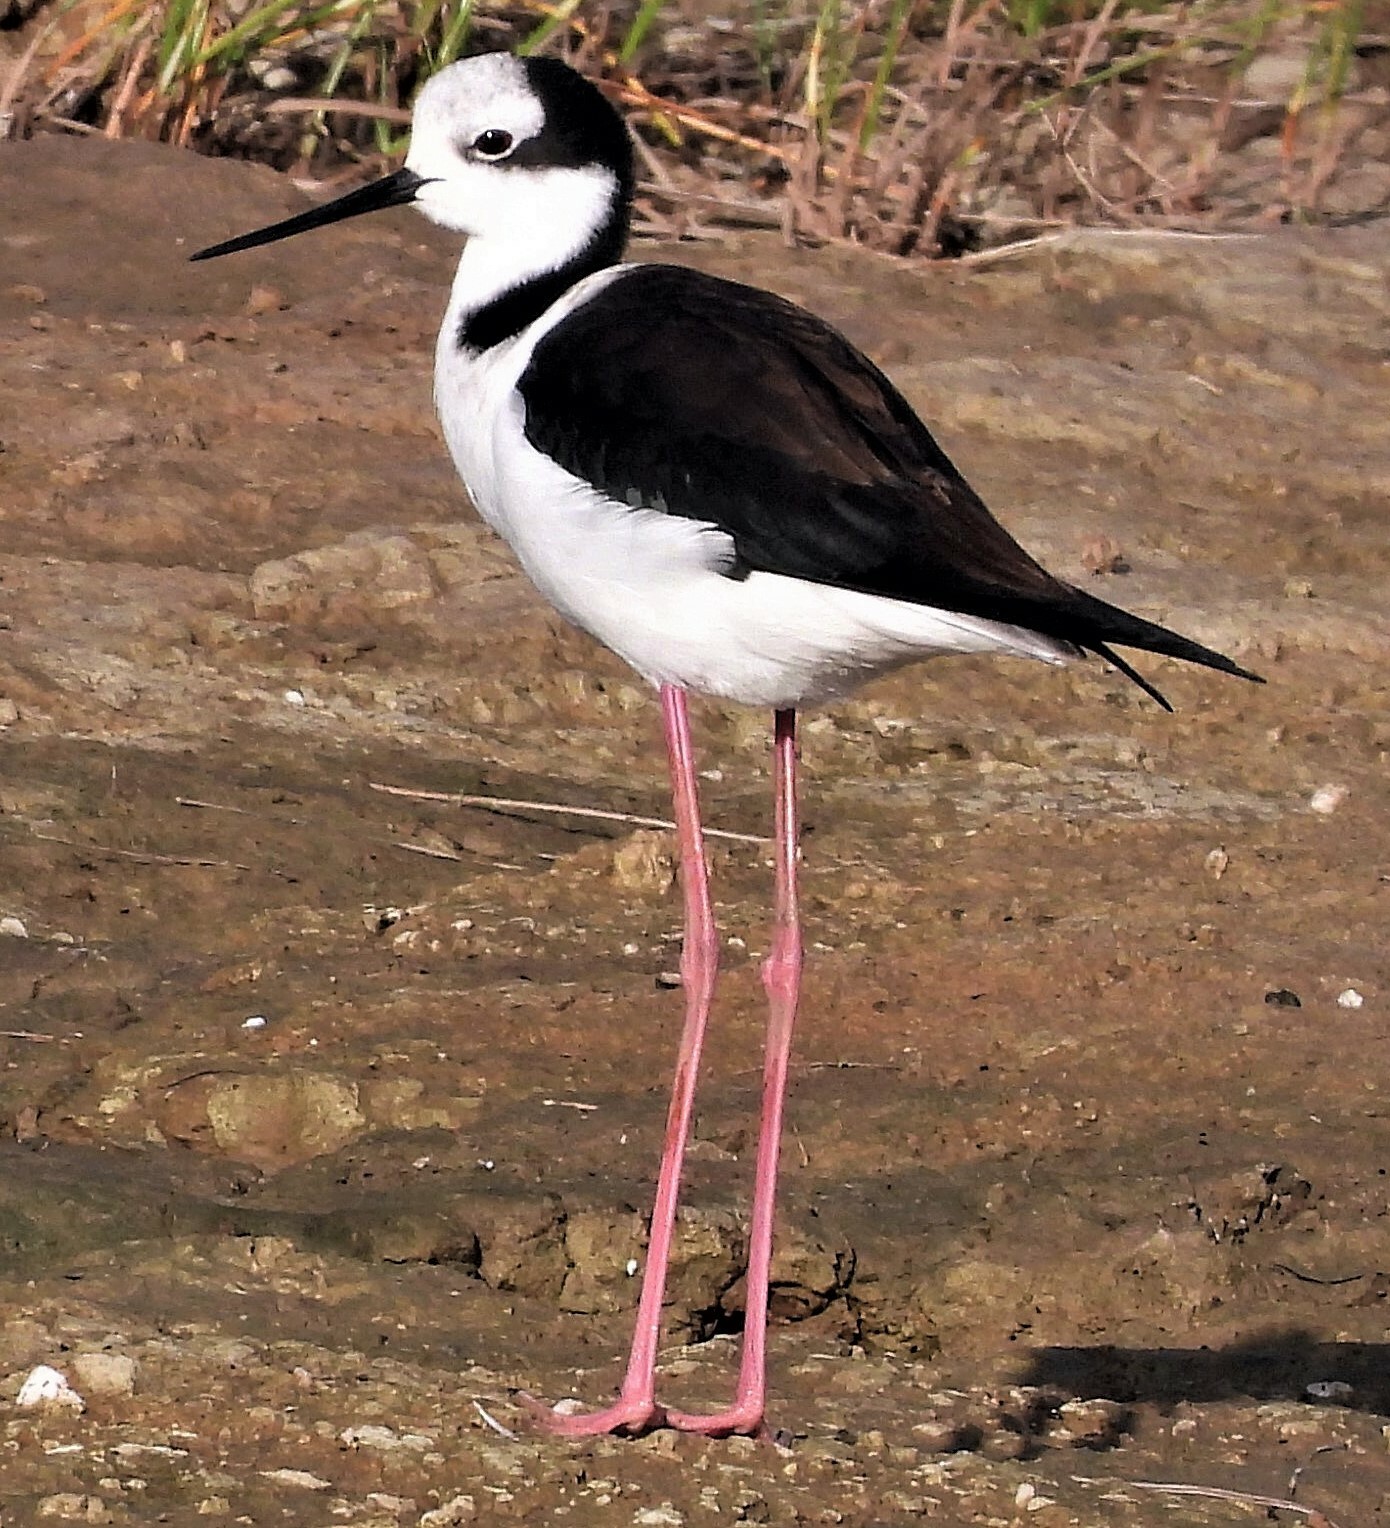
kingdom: Animalia
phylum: Chordata
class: Aves
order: Charadriiformes
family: Recurvirostridae
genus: Himantopus
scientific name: Himantopus mexicanus
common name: Black-necked stilt
